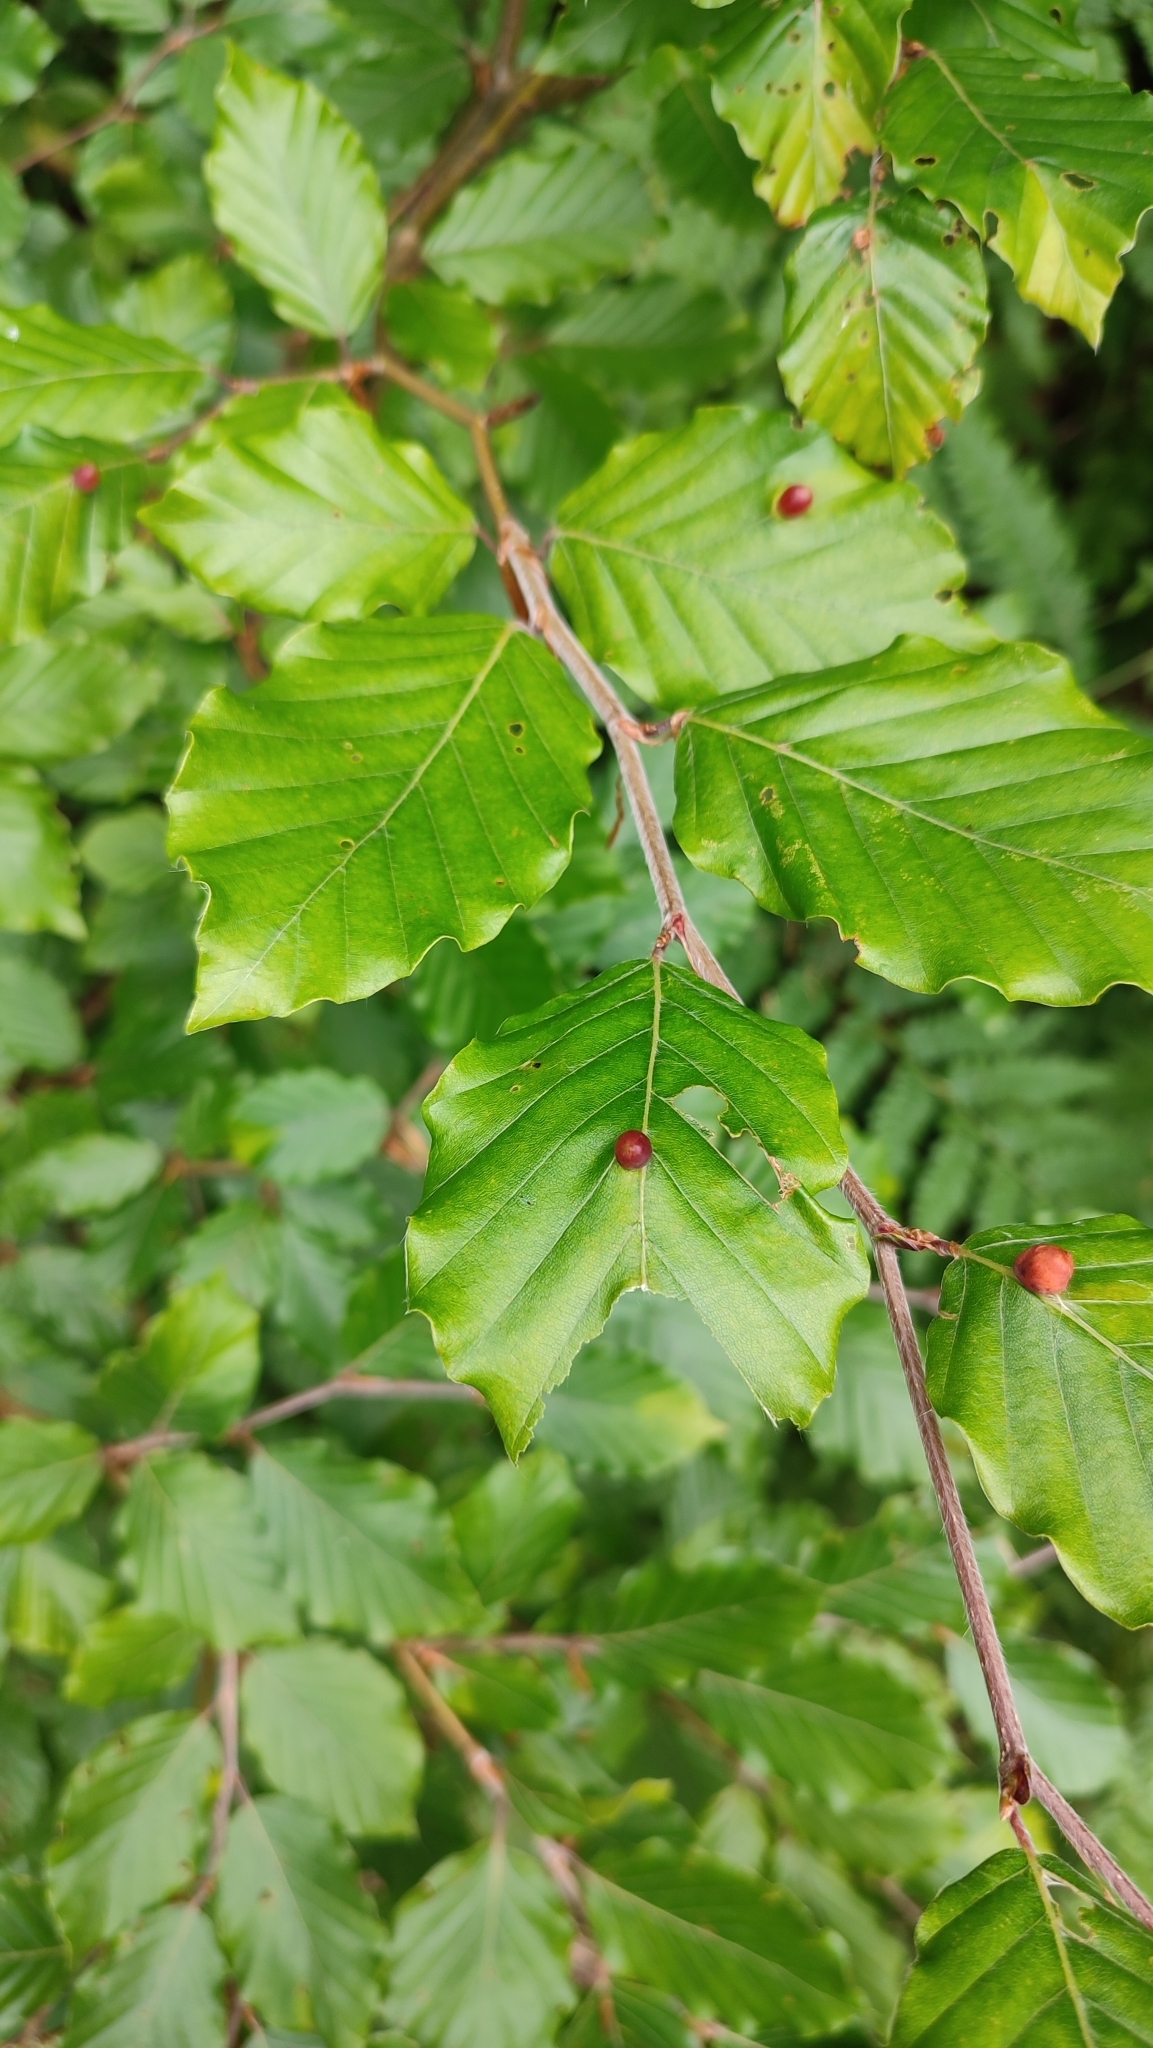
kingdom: Animalia
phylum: Arthropoda
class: Insecta
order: Diptera
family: Cecidomyiidae
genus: Mikiola
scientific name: Mikiola fagi
